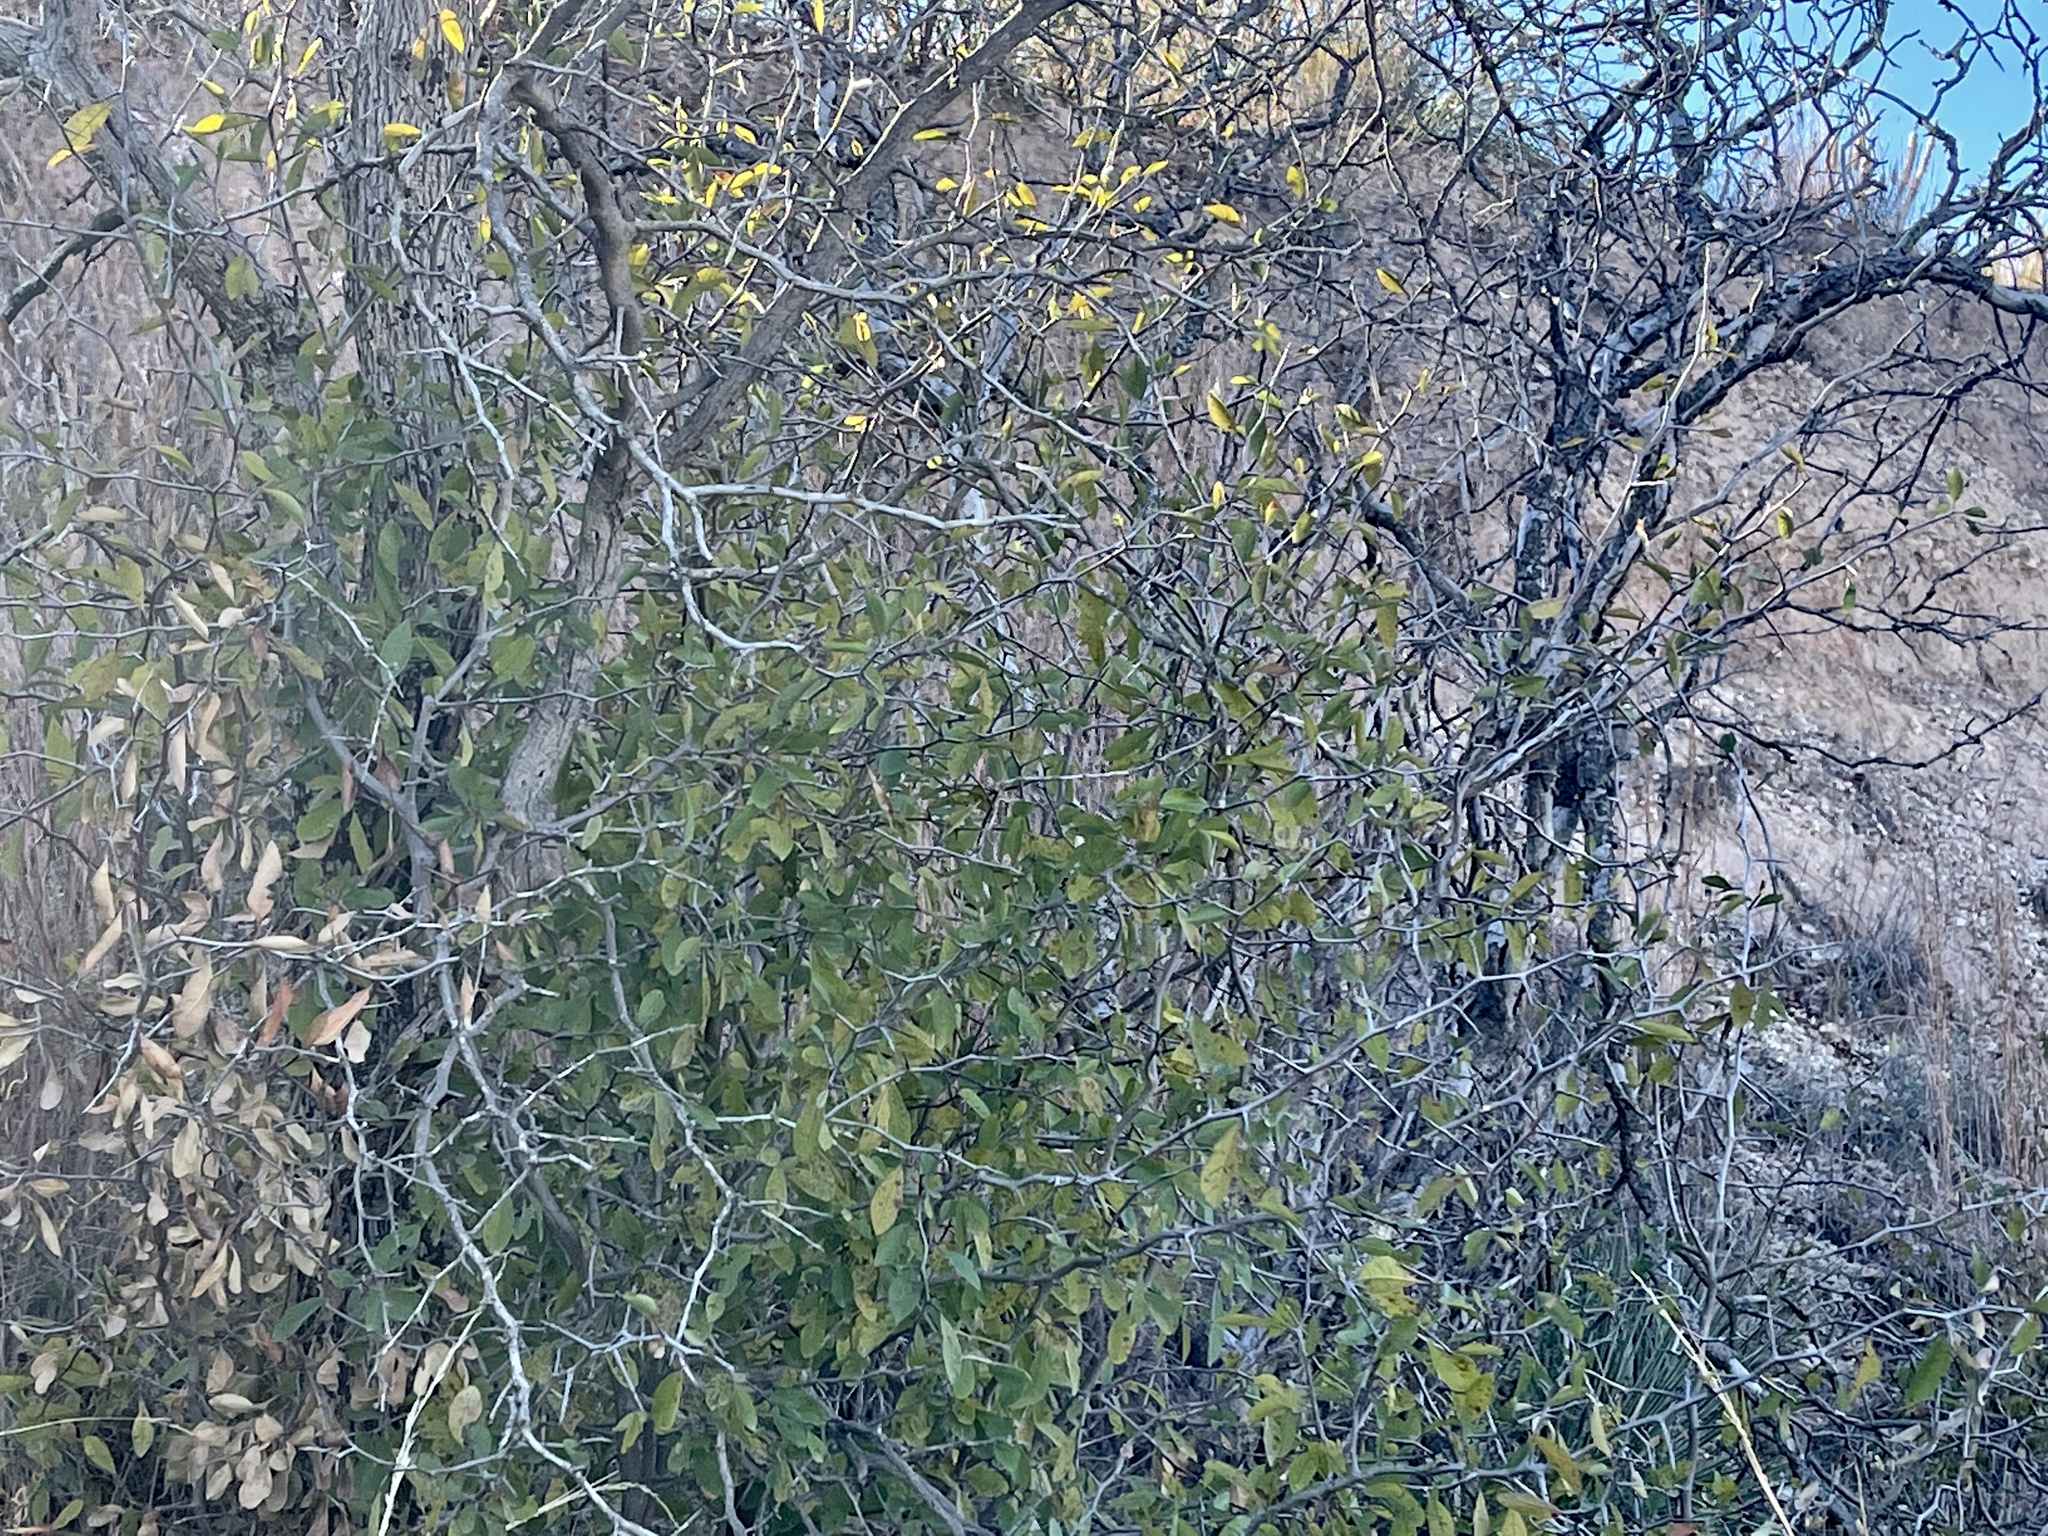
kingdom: Plantae
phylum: Tracheophyta
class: Magnoliopsida
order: Rosales
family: Cannabaceae
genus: Celtis
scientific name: Celtis reticulata
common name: Netleaf hackberry
